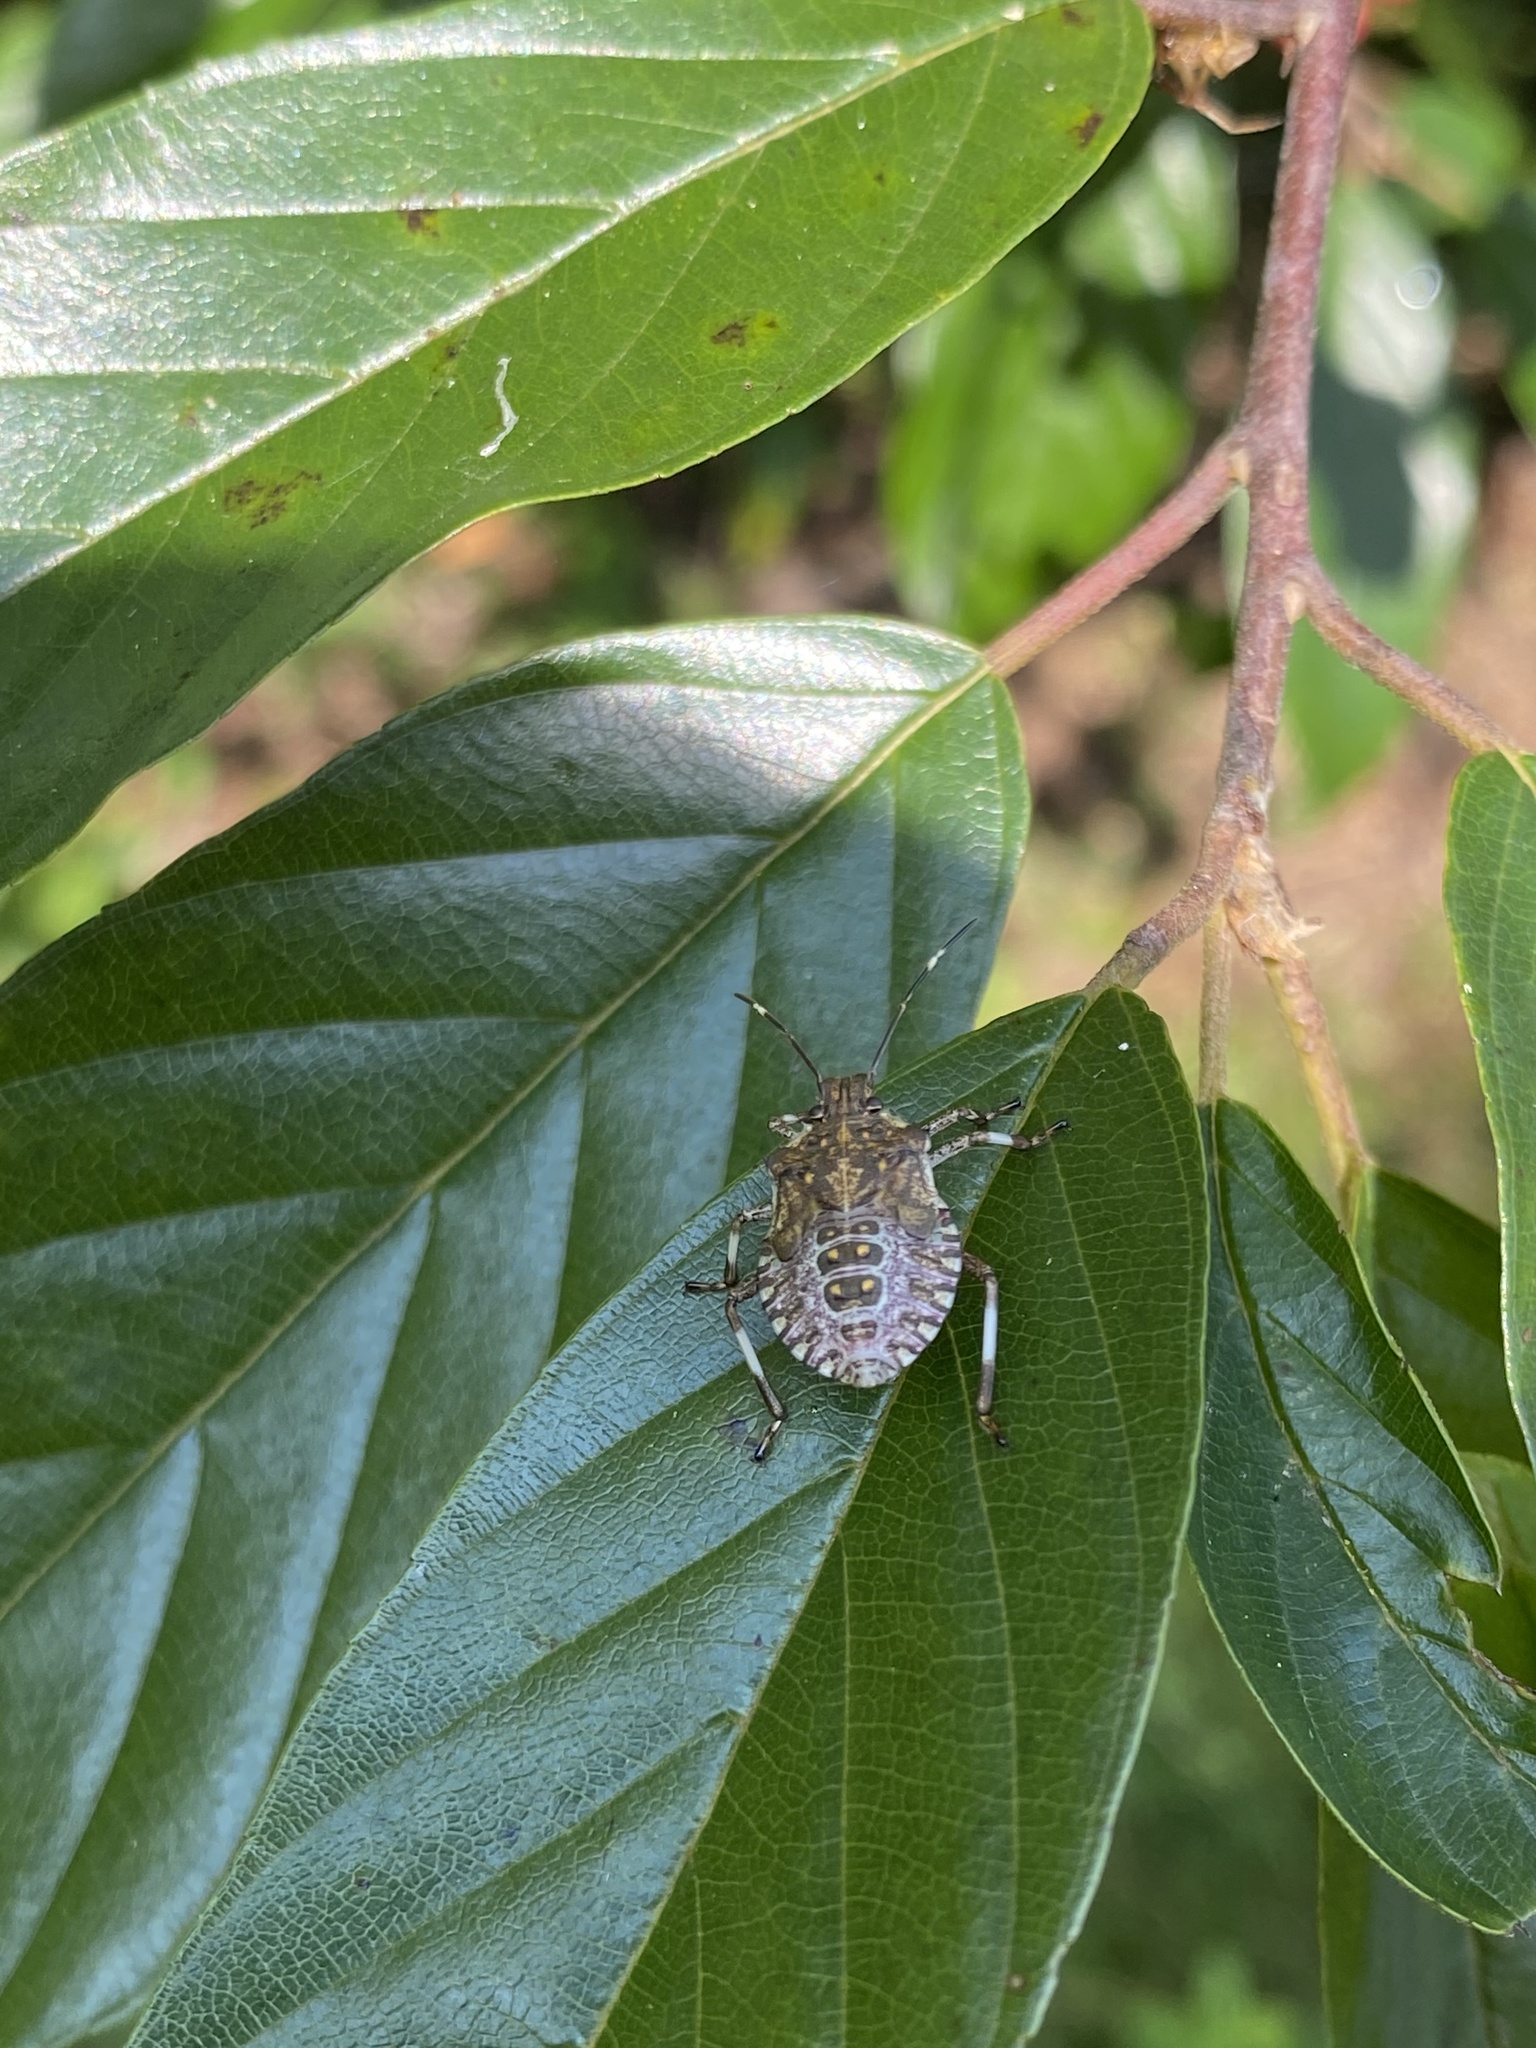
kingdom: Animalia
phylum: Arthropoda
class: Insecta
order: Hemiptera
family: Pentatomidae
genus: Halyomorpha
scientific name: Halyomorpha halys
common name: Brown marmorated stink bug
